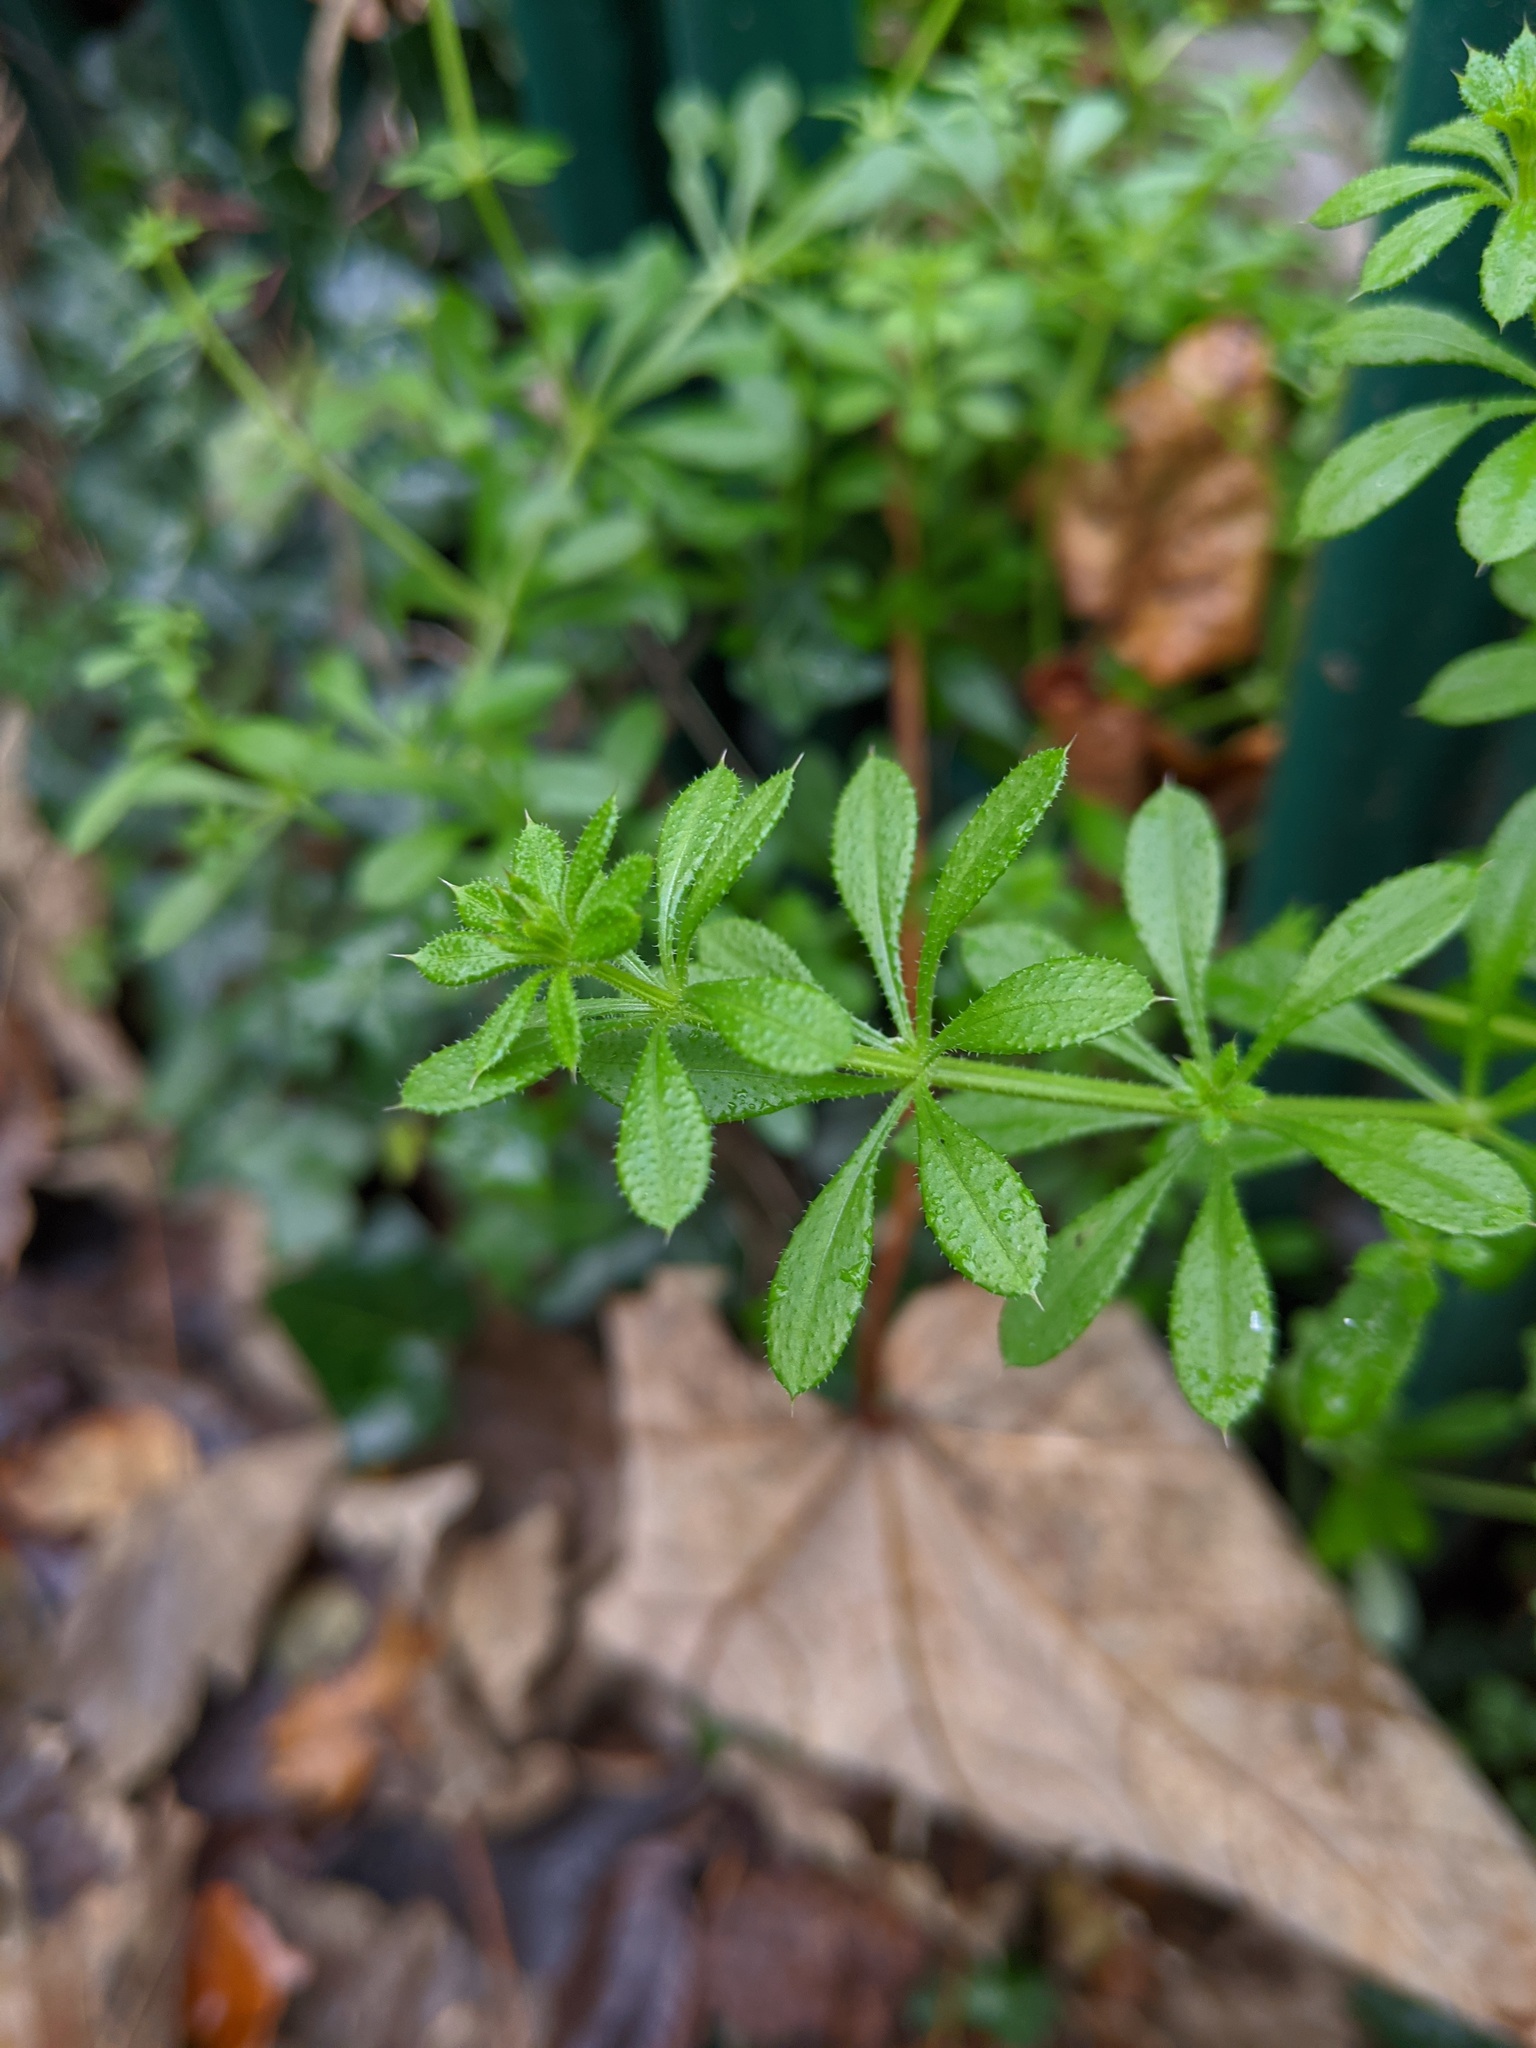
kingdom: Plantae
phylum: Tracheophyta
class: Magnoliopsida
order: Gentianales
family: Rubiaceae
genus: Galium
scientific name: Galium aparine
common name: Cleavers
